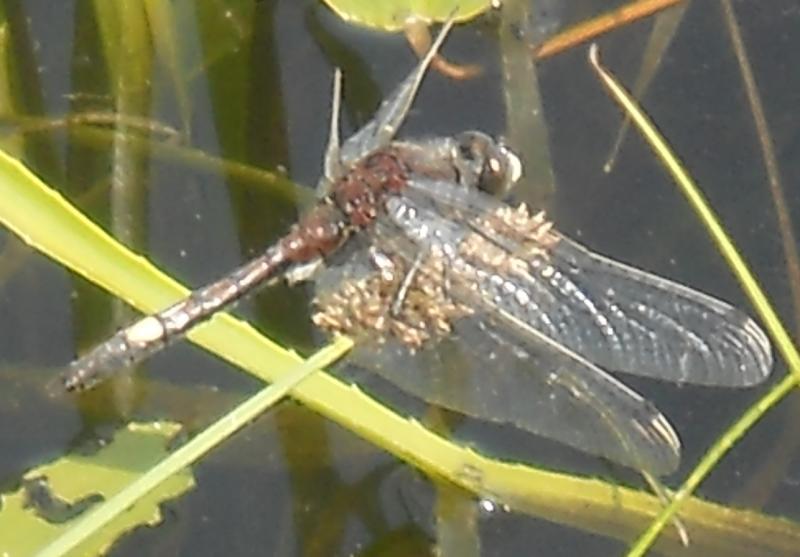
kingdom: Animalia
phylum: Arthropoda
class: Insecta
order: Odonata
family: Libellulidae
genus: Leucorrhinia
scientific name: Leucorrhinia pectoralis
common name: Yellow-spotted whiteface
